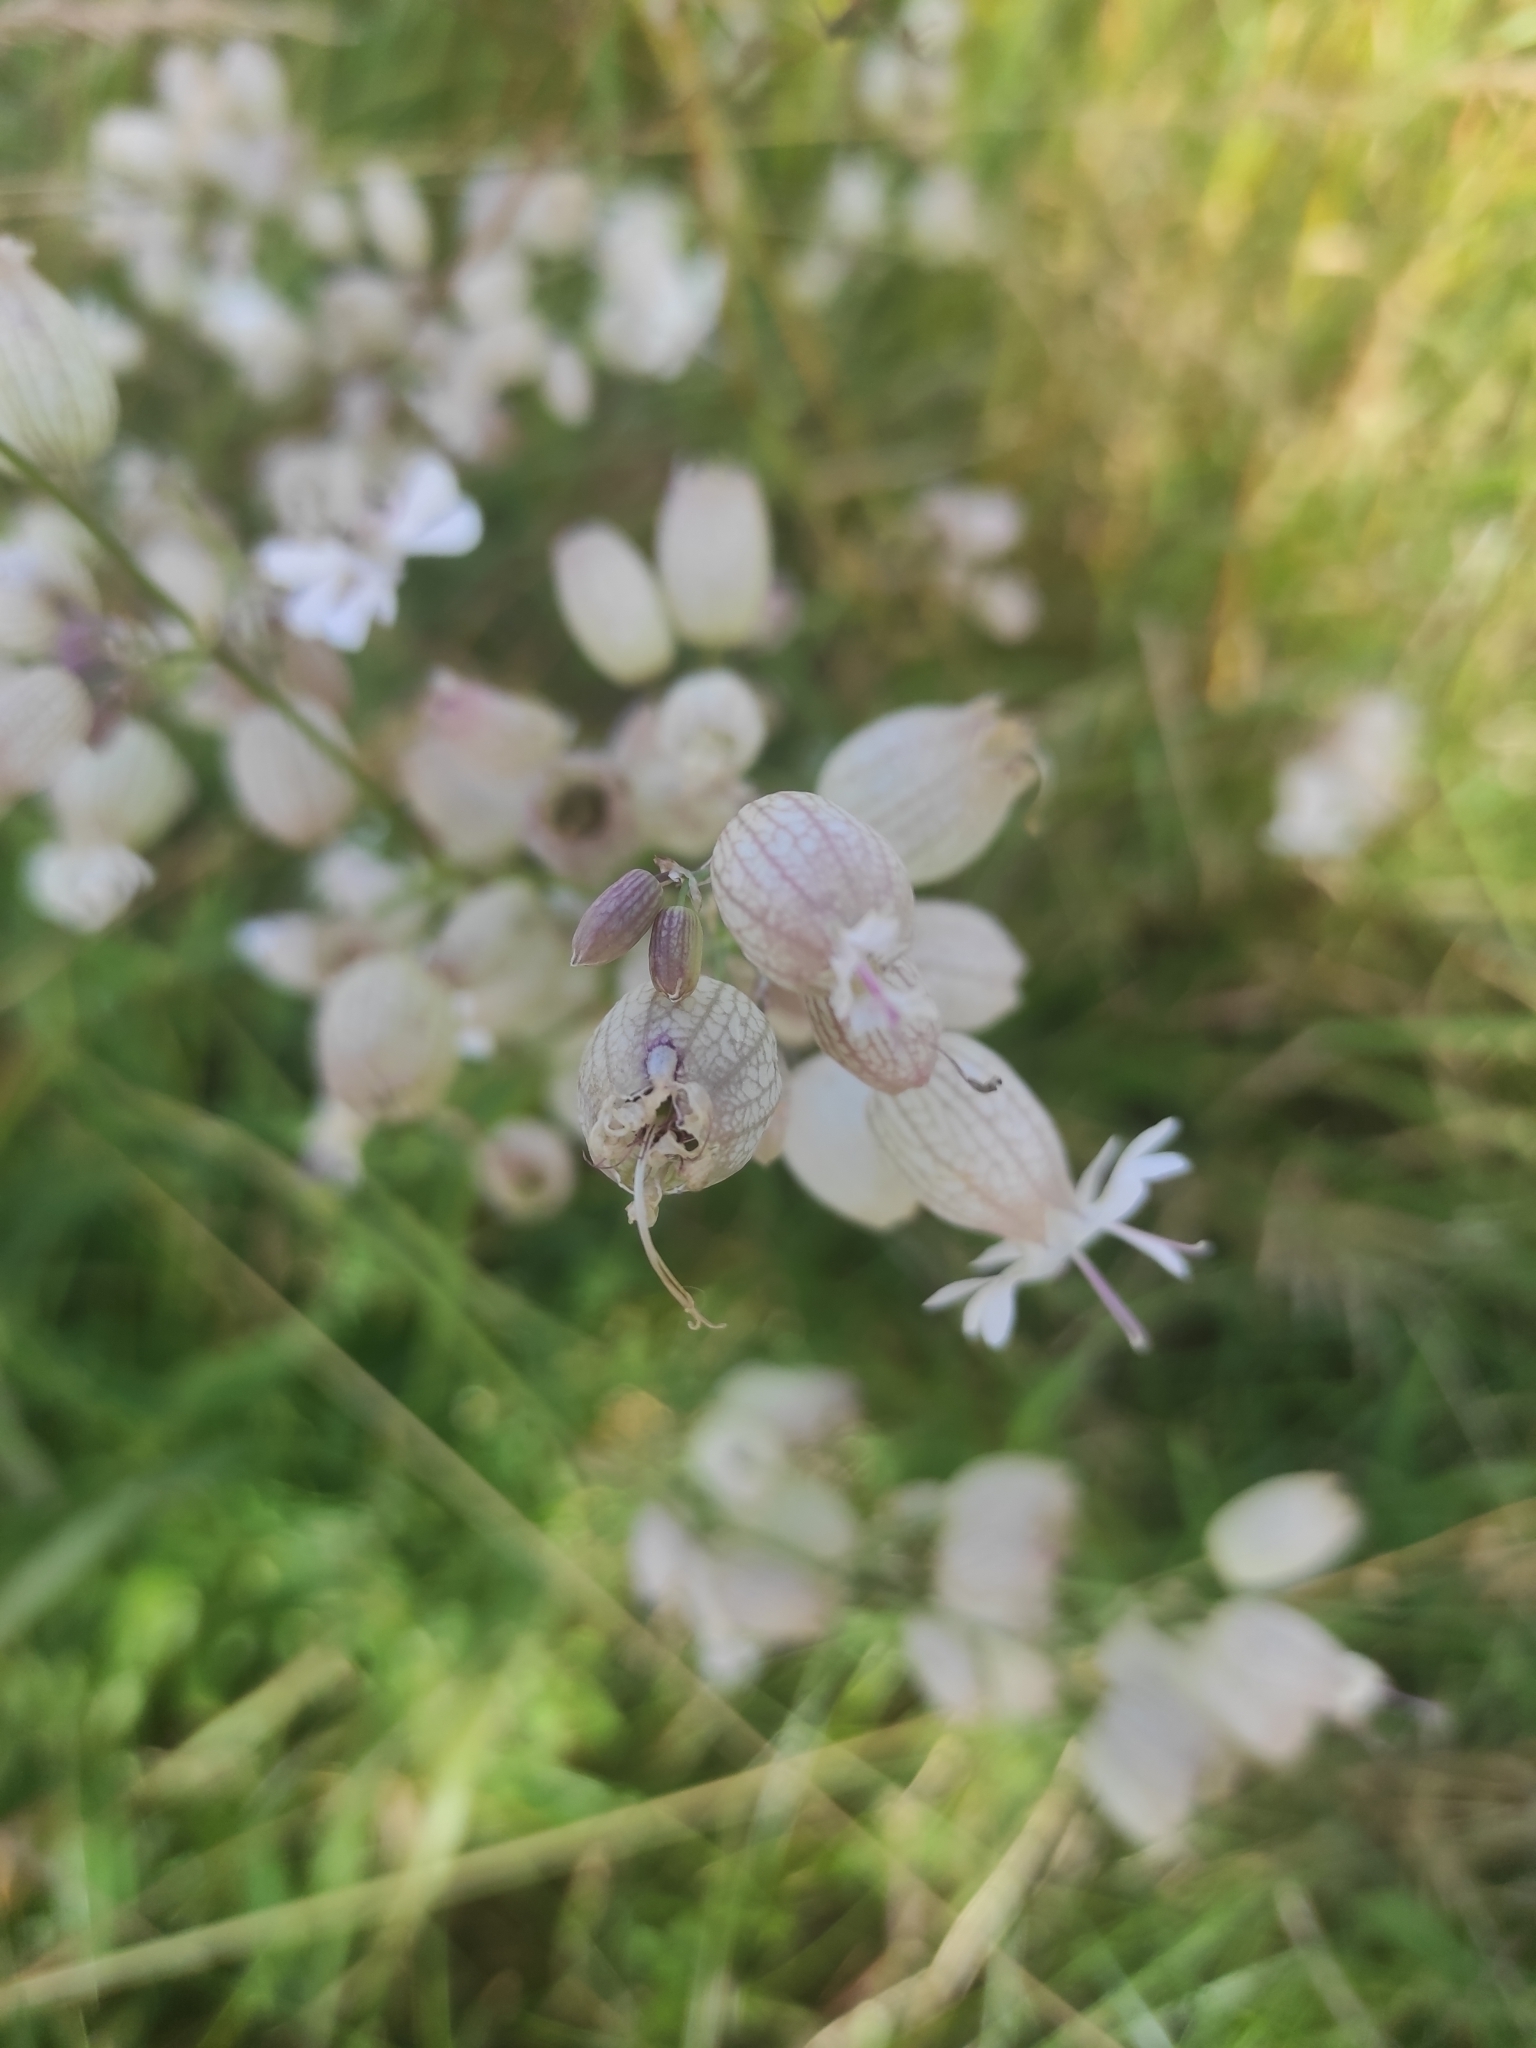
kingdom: Plantae
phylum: Tracheophyta
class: Magnoliopsida
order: Caryophyllales
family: Caryophyllaceae
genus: Silene
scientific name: Silene vulgaris
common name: Bladder campion
